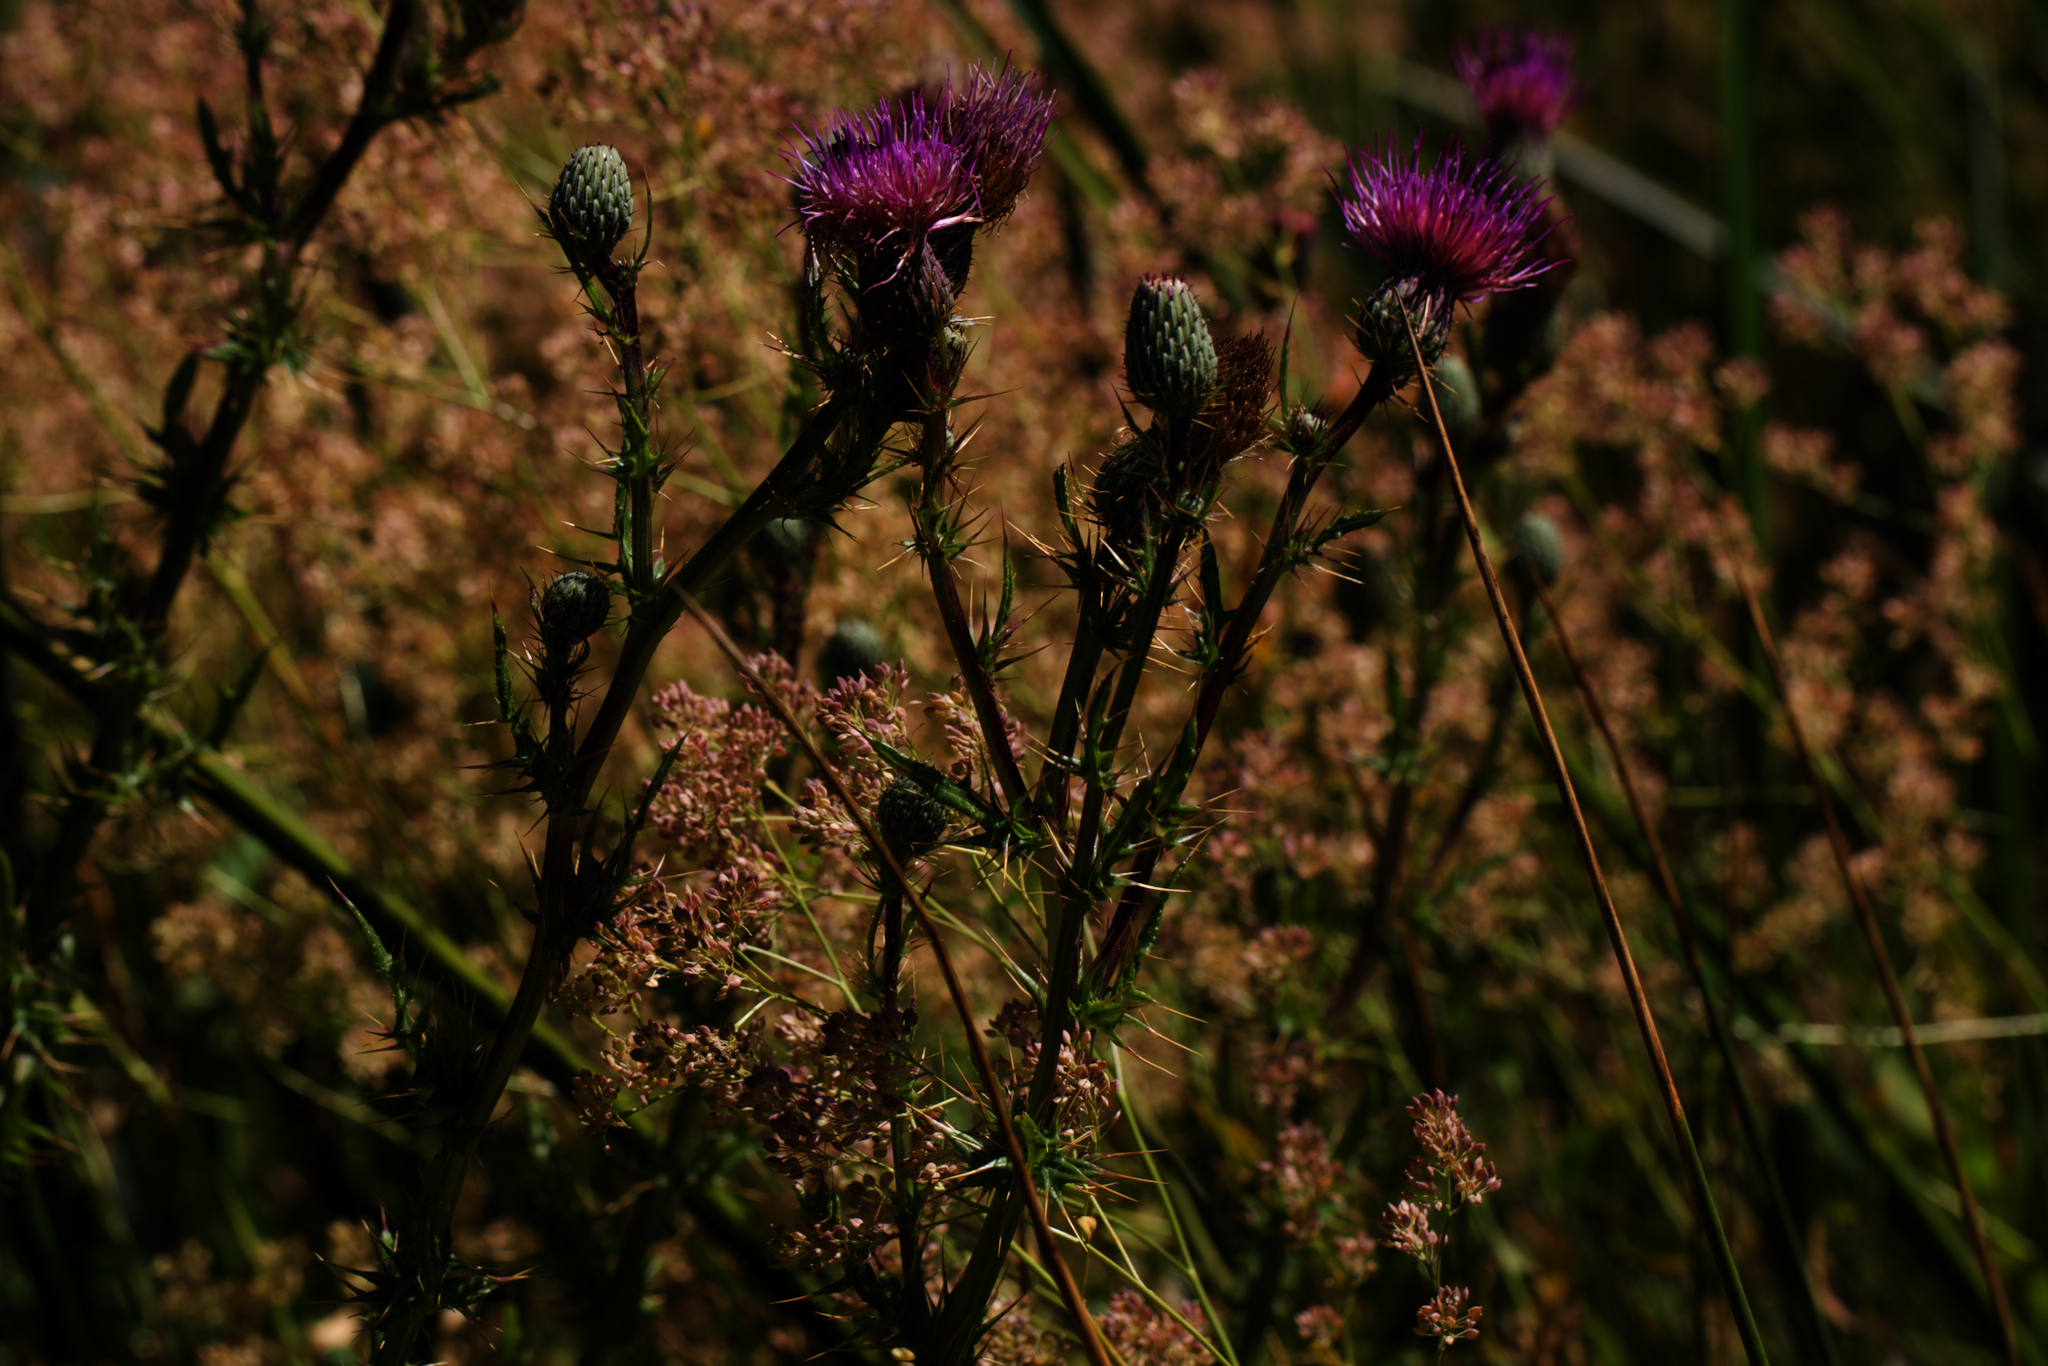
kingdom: Plantae
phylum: Tracheophyta
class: Magnoliopsida
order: Asterales
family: Asteraceae
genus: Cirsium
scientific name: Cirsium hydrophilum
